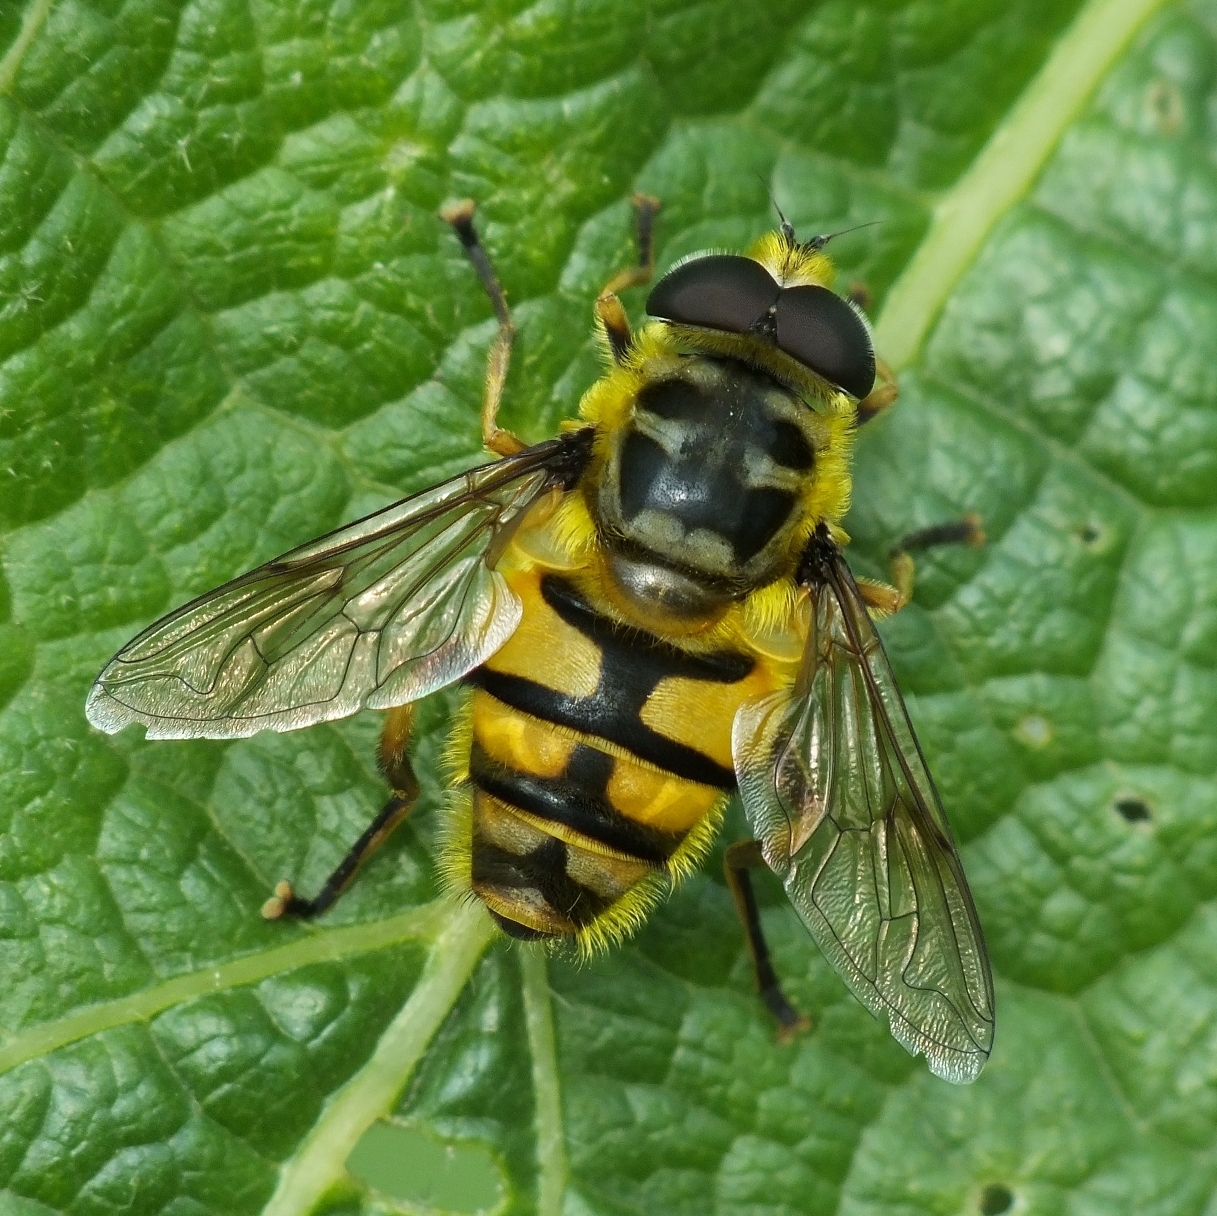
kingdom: Animalia
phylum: Arthropoda
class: Insecta
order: Diptera
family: Syrphidae
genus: Myathropa
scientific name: Myathropa florea
